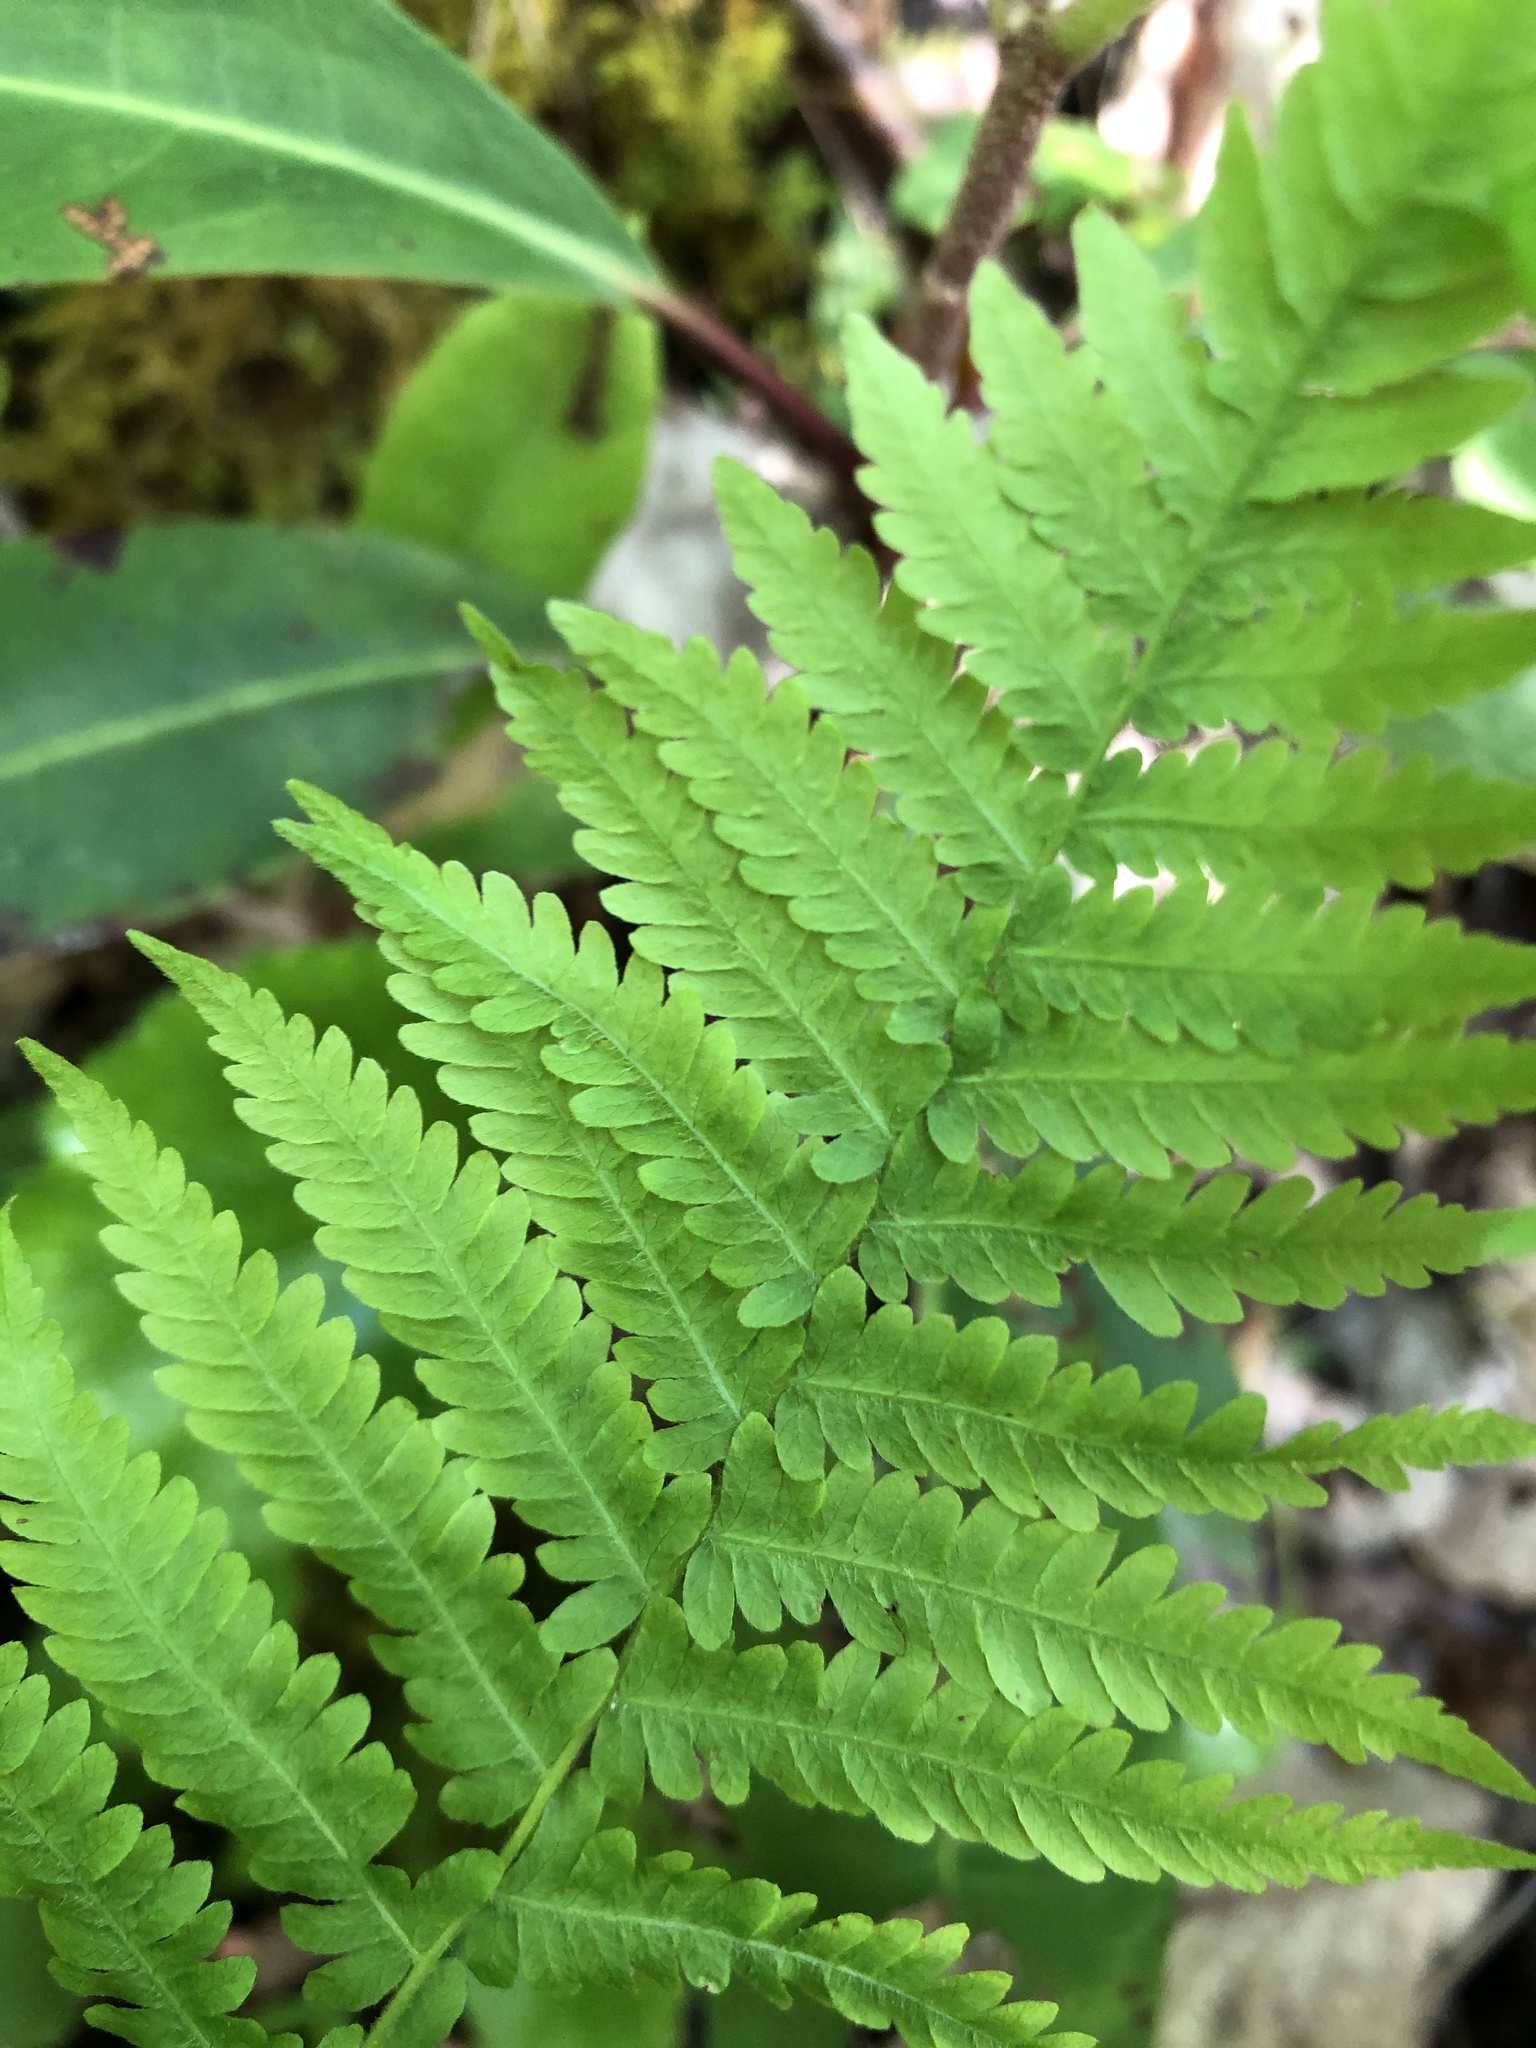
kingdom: Plantae
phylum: Tracheophyta
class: Polypodiopsida
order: Polypodiales
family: Thelypteridaceae
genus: Amauropelta
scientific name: Amauropelta noveboracensis
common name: New york fern
